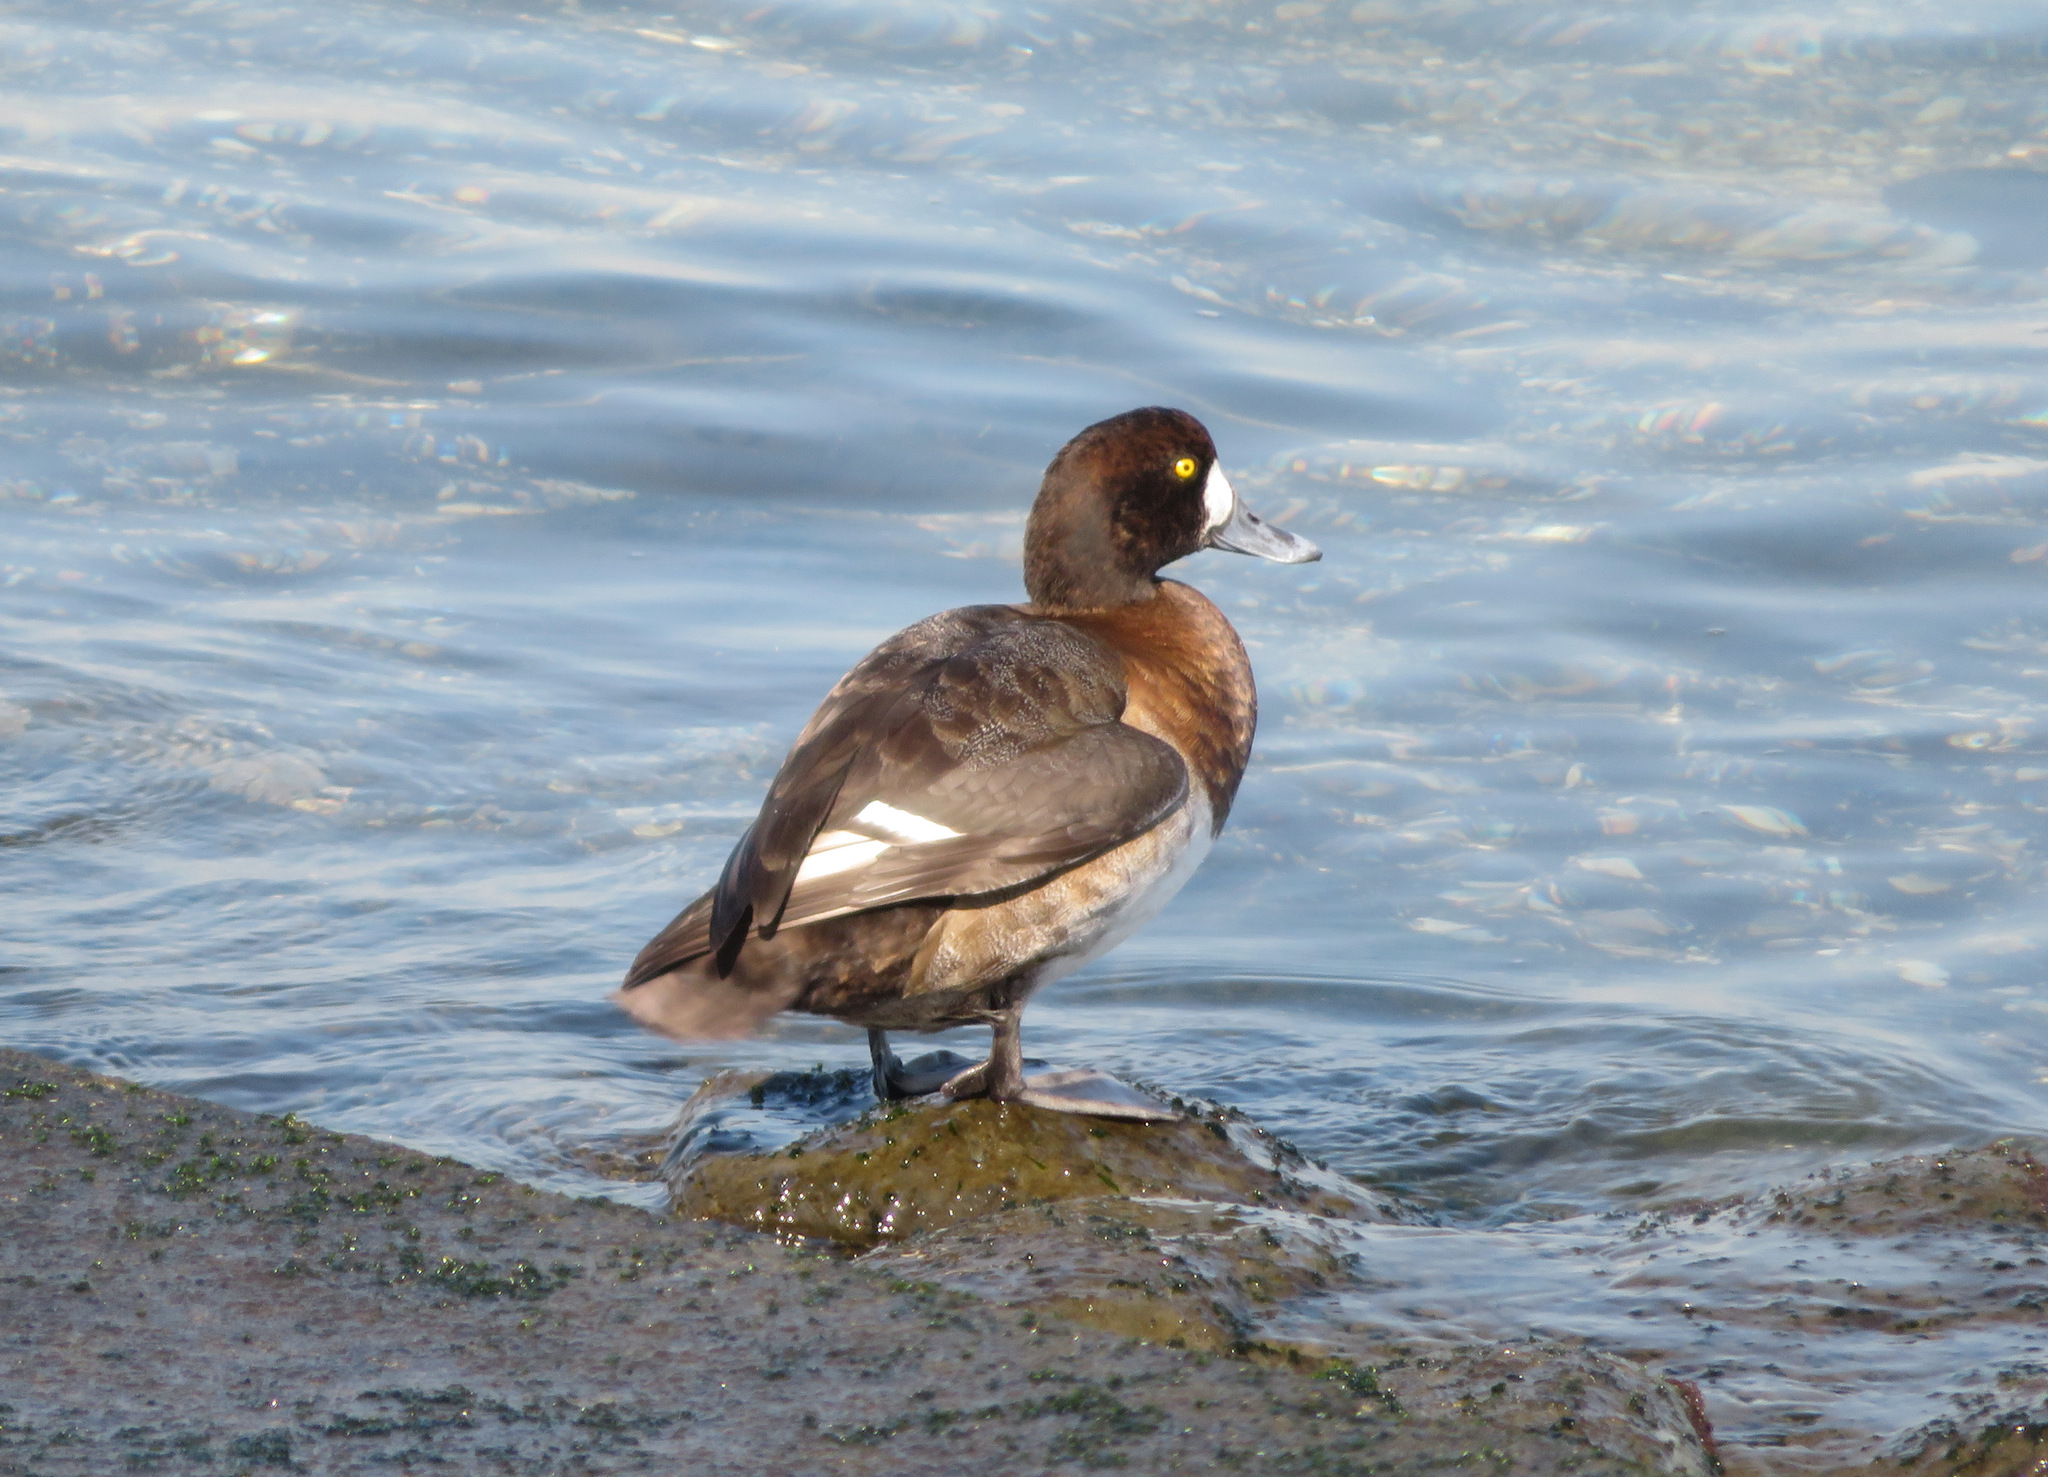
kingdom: Animalia
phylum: Chordata
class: Aves
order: Anseriformes
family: Anatidae
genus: Aythya
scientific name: Aythya marila
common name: Greater scaup
